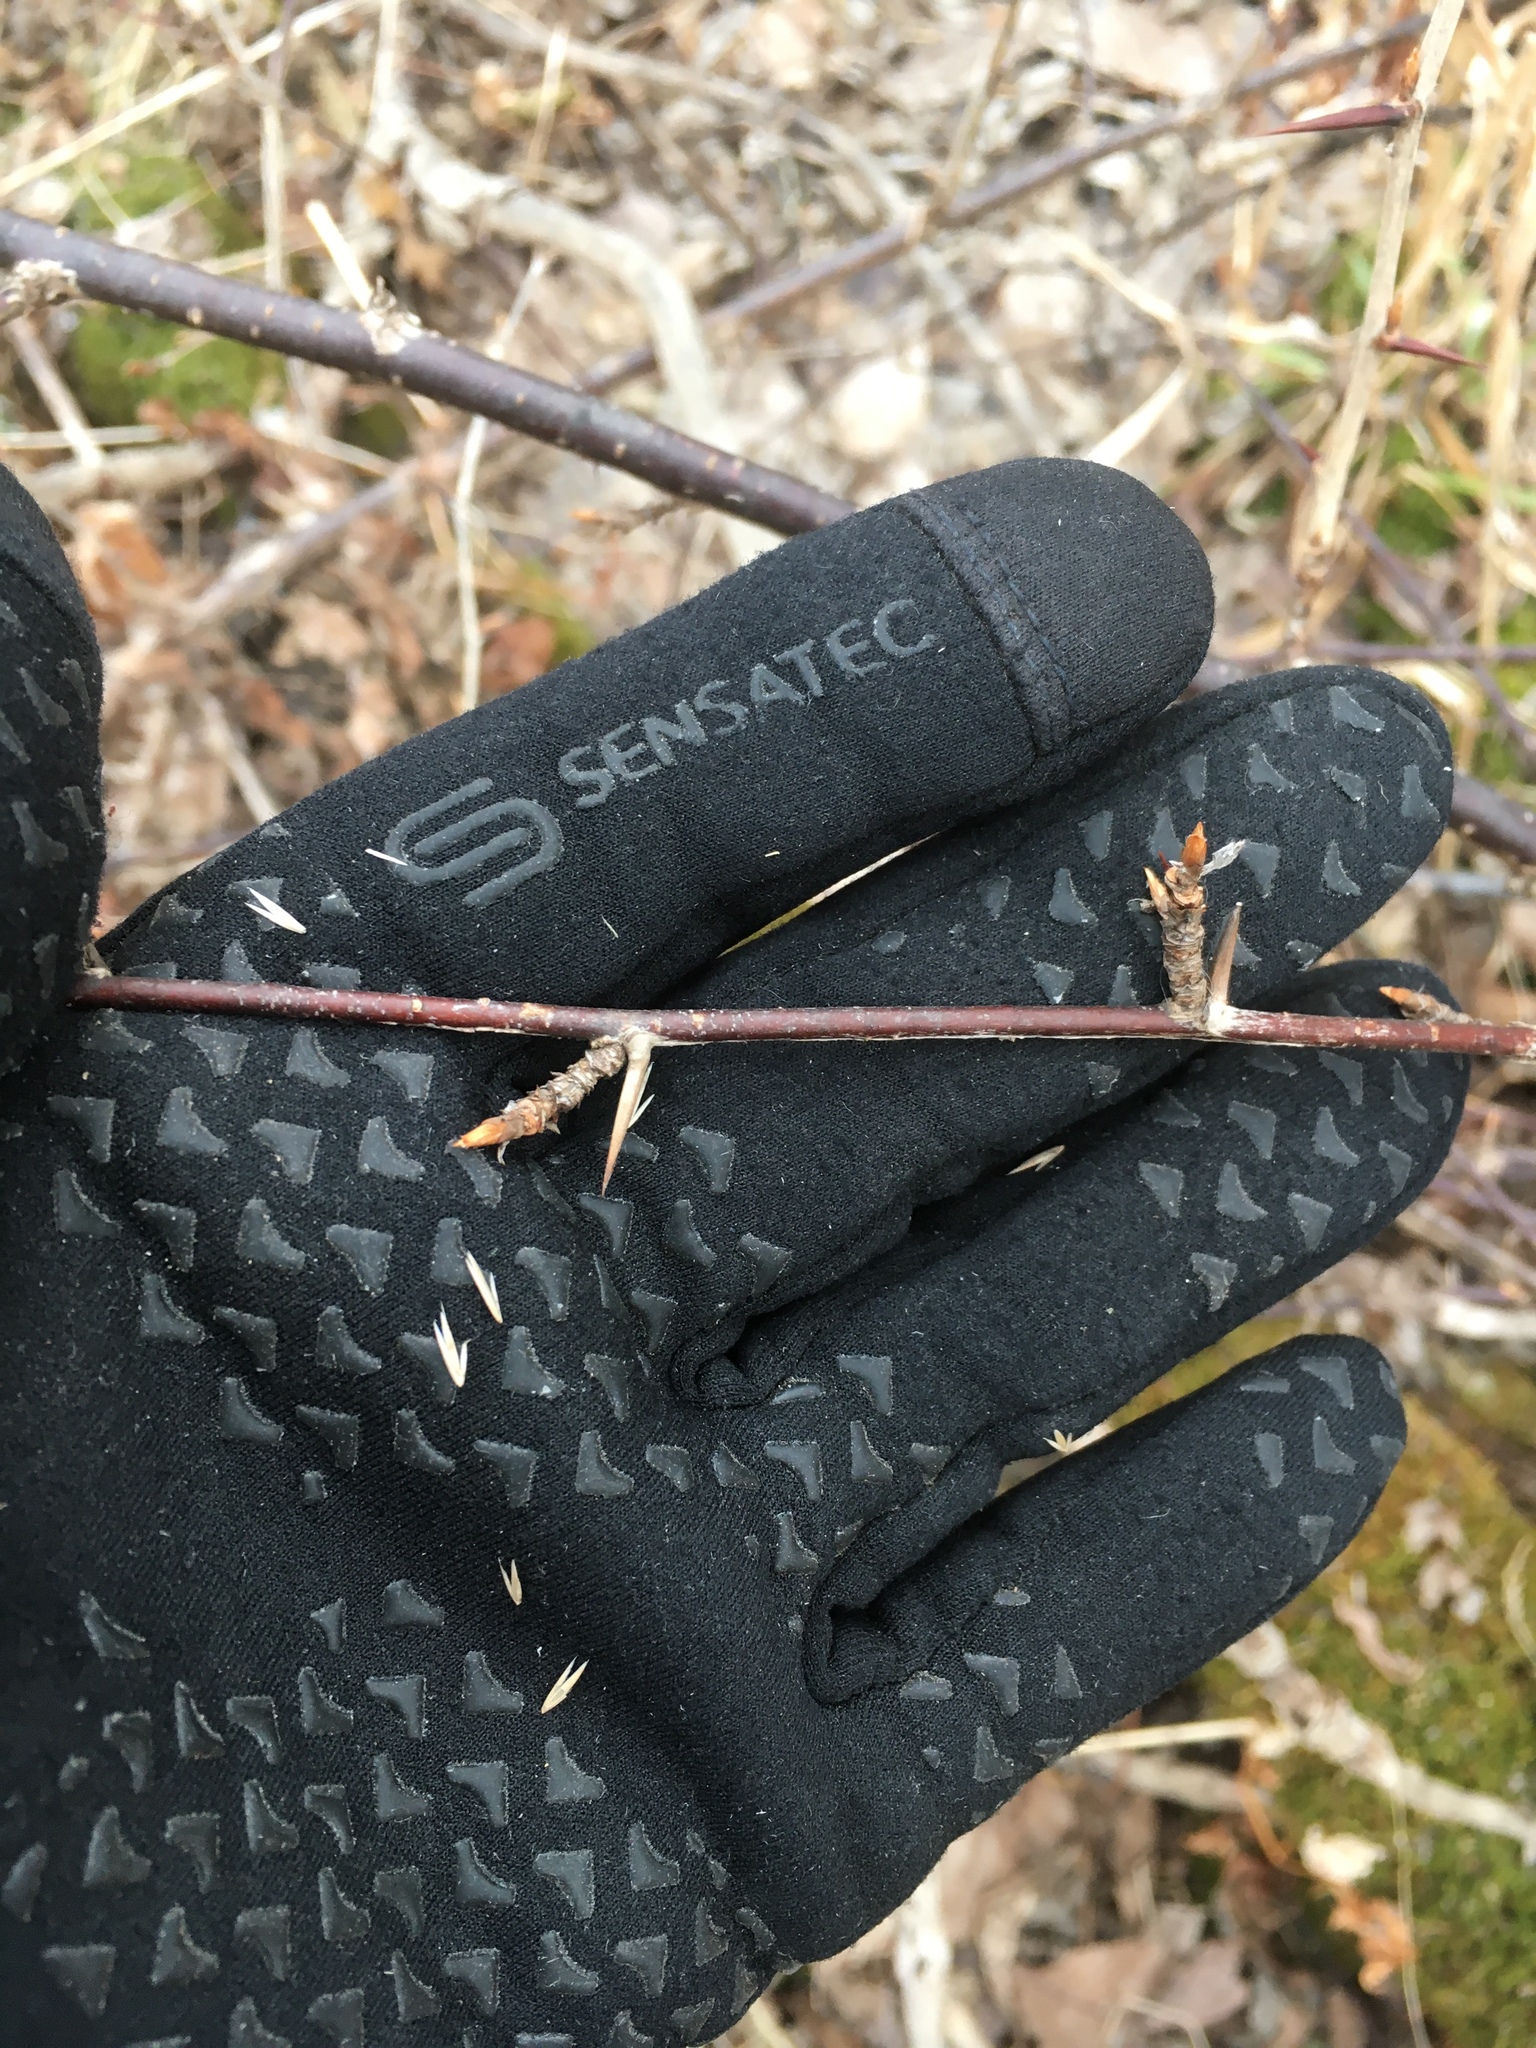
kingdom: Plantae
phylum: Tracheophyta
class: Magnoliopsida
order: Saxifragales
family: Grossulariaceae
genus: Ribes
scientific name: Ribes missouriense
